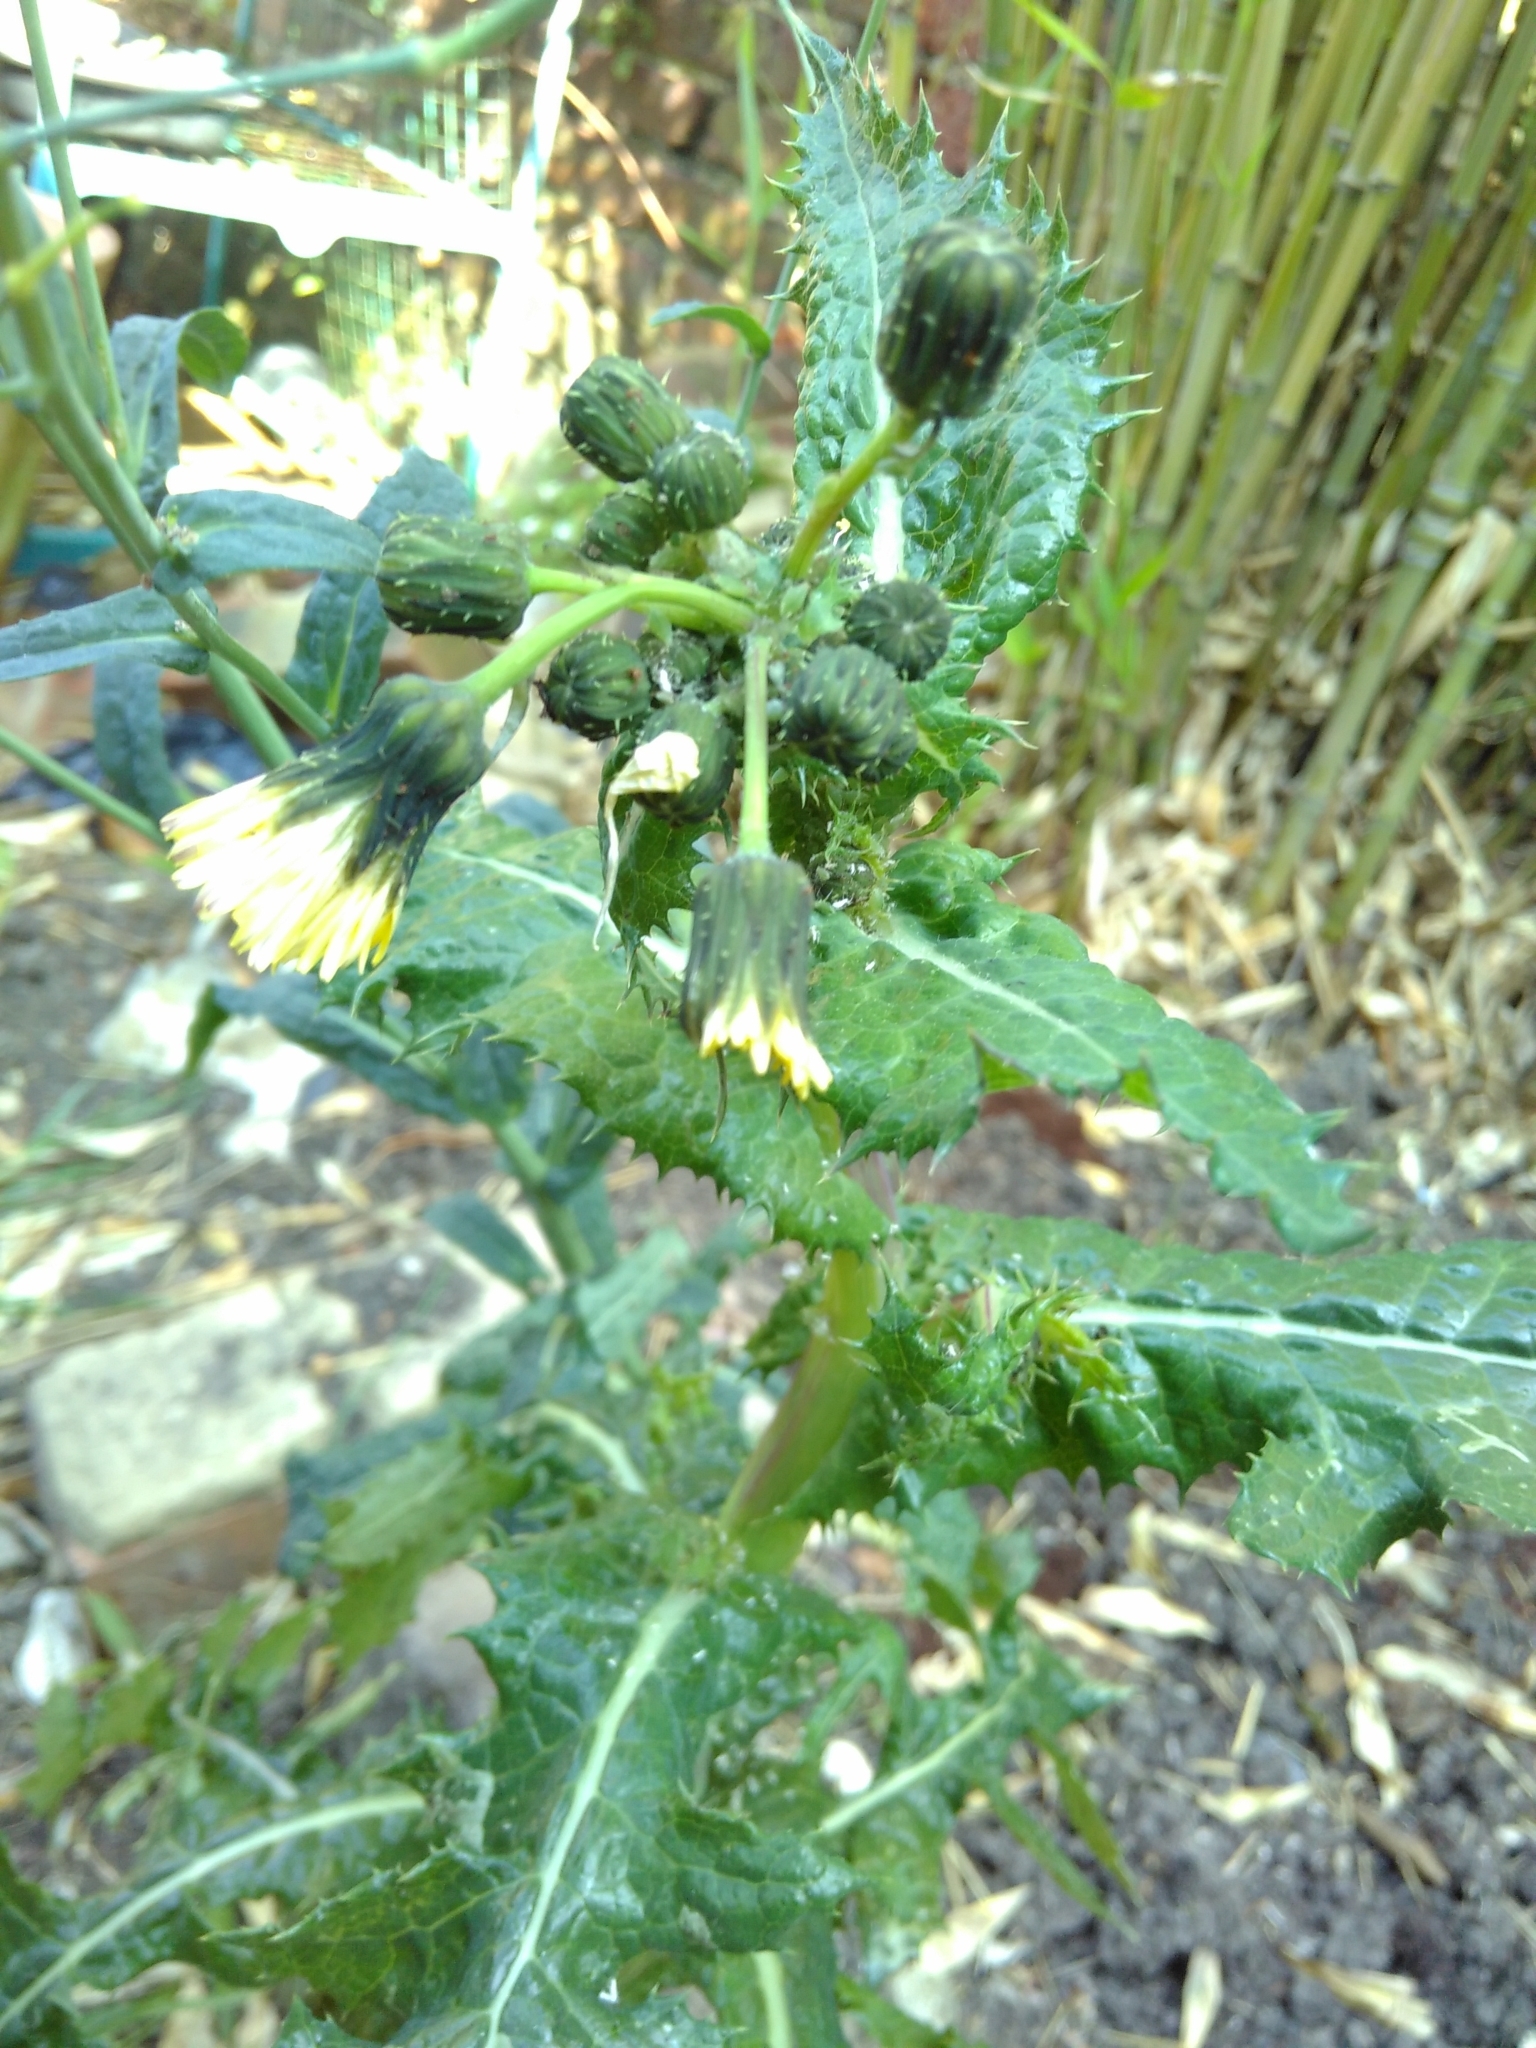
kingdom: Plantae
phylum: Tracheophyta
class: Magnoliopsida
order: Asterales
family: Asteraceae
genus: Sonchus
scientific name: Sonchus asper
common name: Prickly sow-thistle
